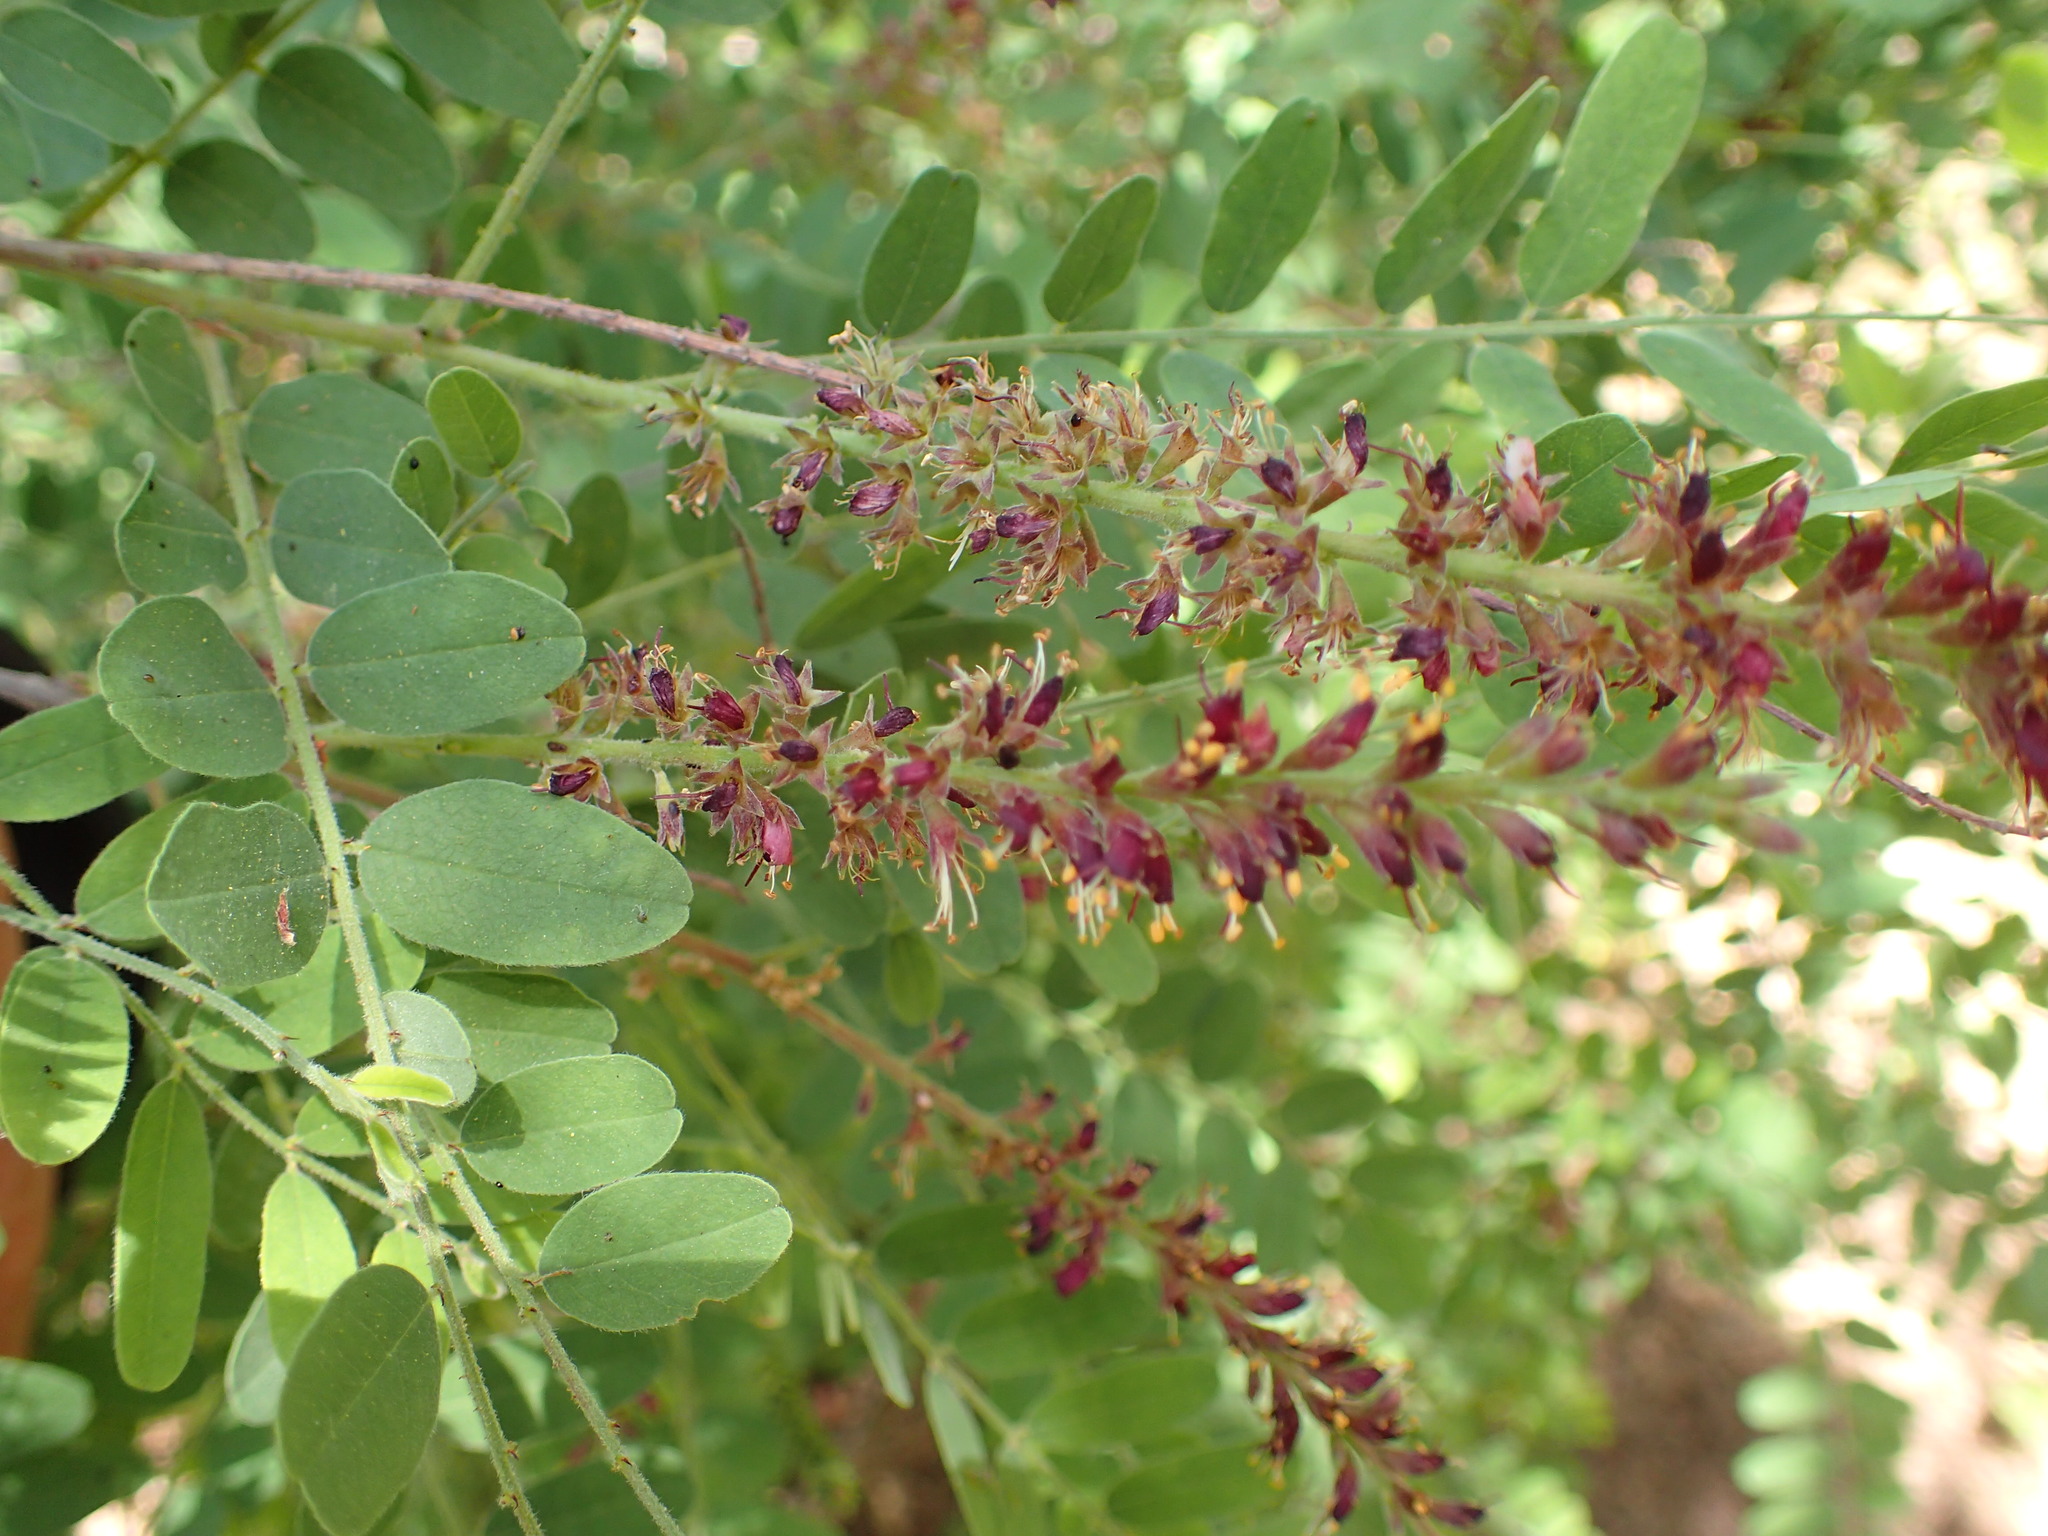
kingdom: Plantae
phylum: Tracheophyta
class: Magnoliopsida
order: Fabales
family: Fabaceae
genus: Amorpha
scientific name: Amorpha californica
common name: California indigobush
